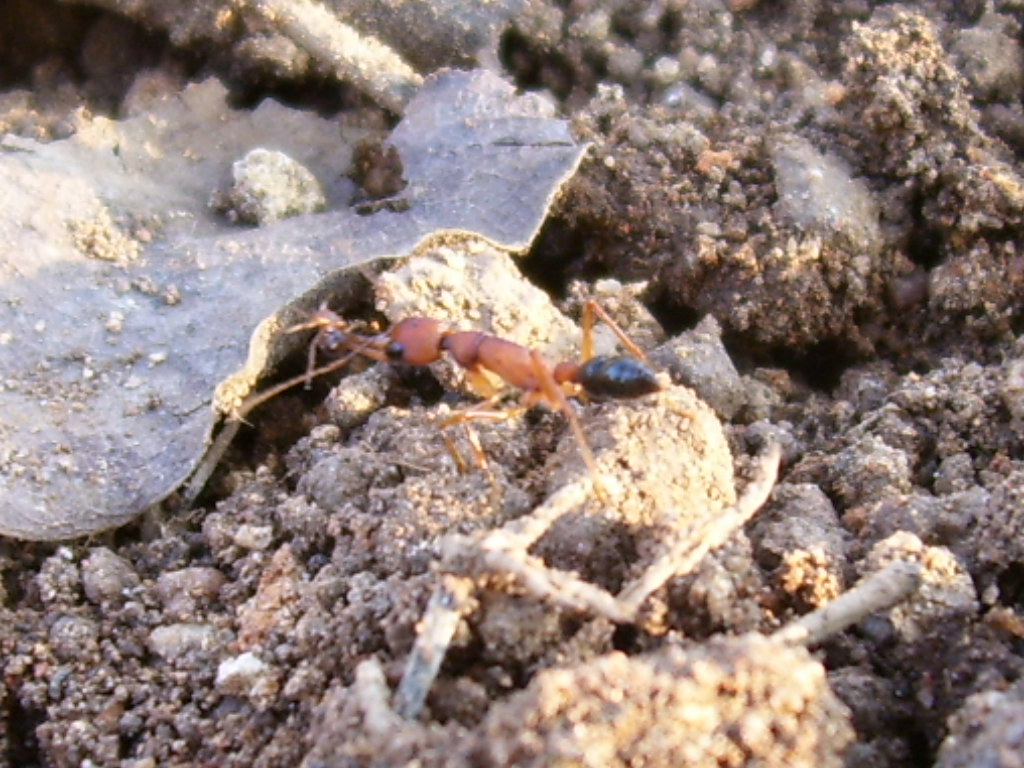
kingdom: Animalia
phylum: Arthropoda
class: Insecta
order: Hymenoptera
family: Formicidae
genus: Harpegnathos
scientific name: Harpegnathos saltator
